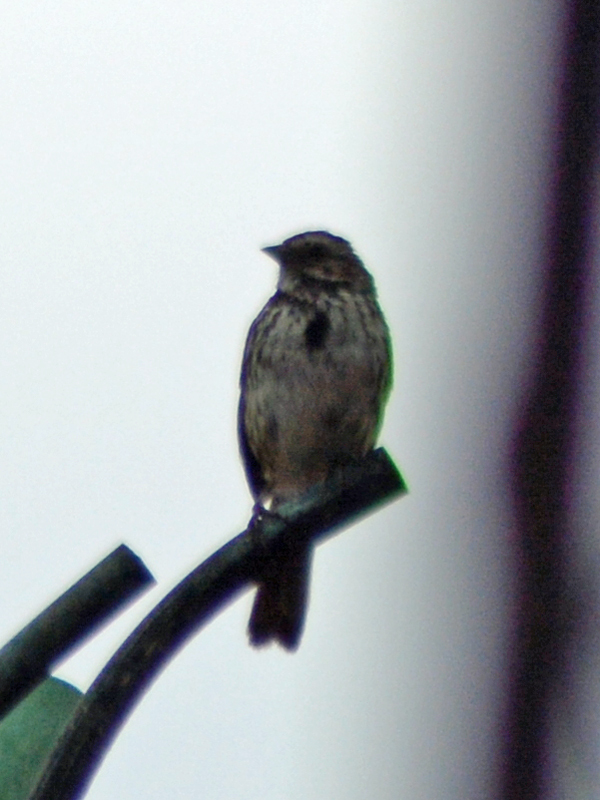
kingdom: Animalia
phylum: Chordata
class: Aves
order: Passeriformes
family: Passerellidae
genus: Melospiza
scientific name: Melospiza melodia
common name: Song sparrow
